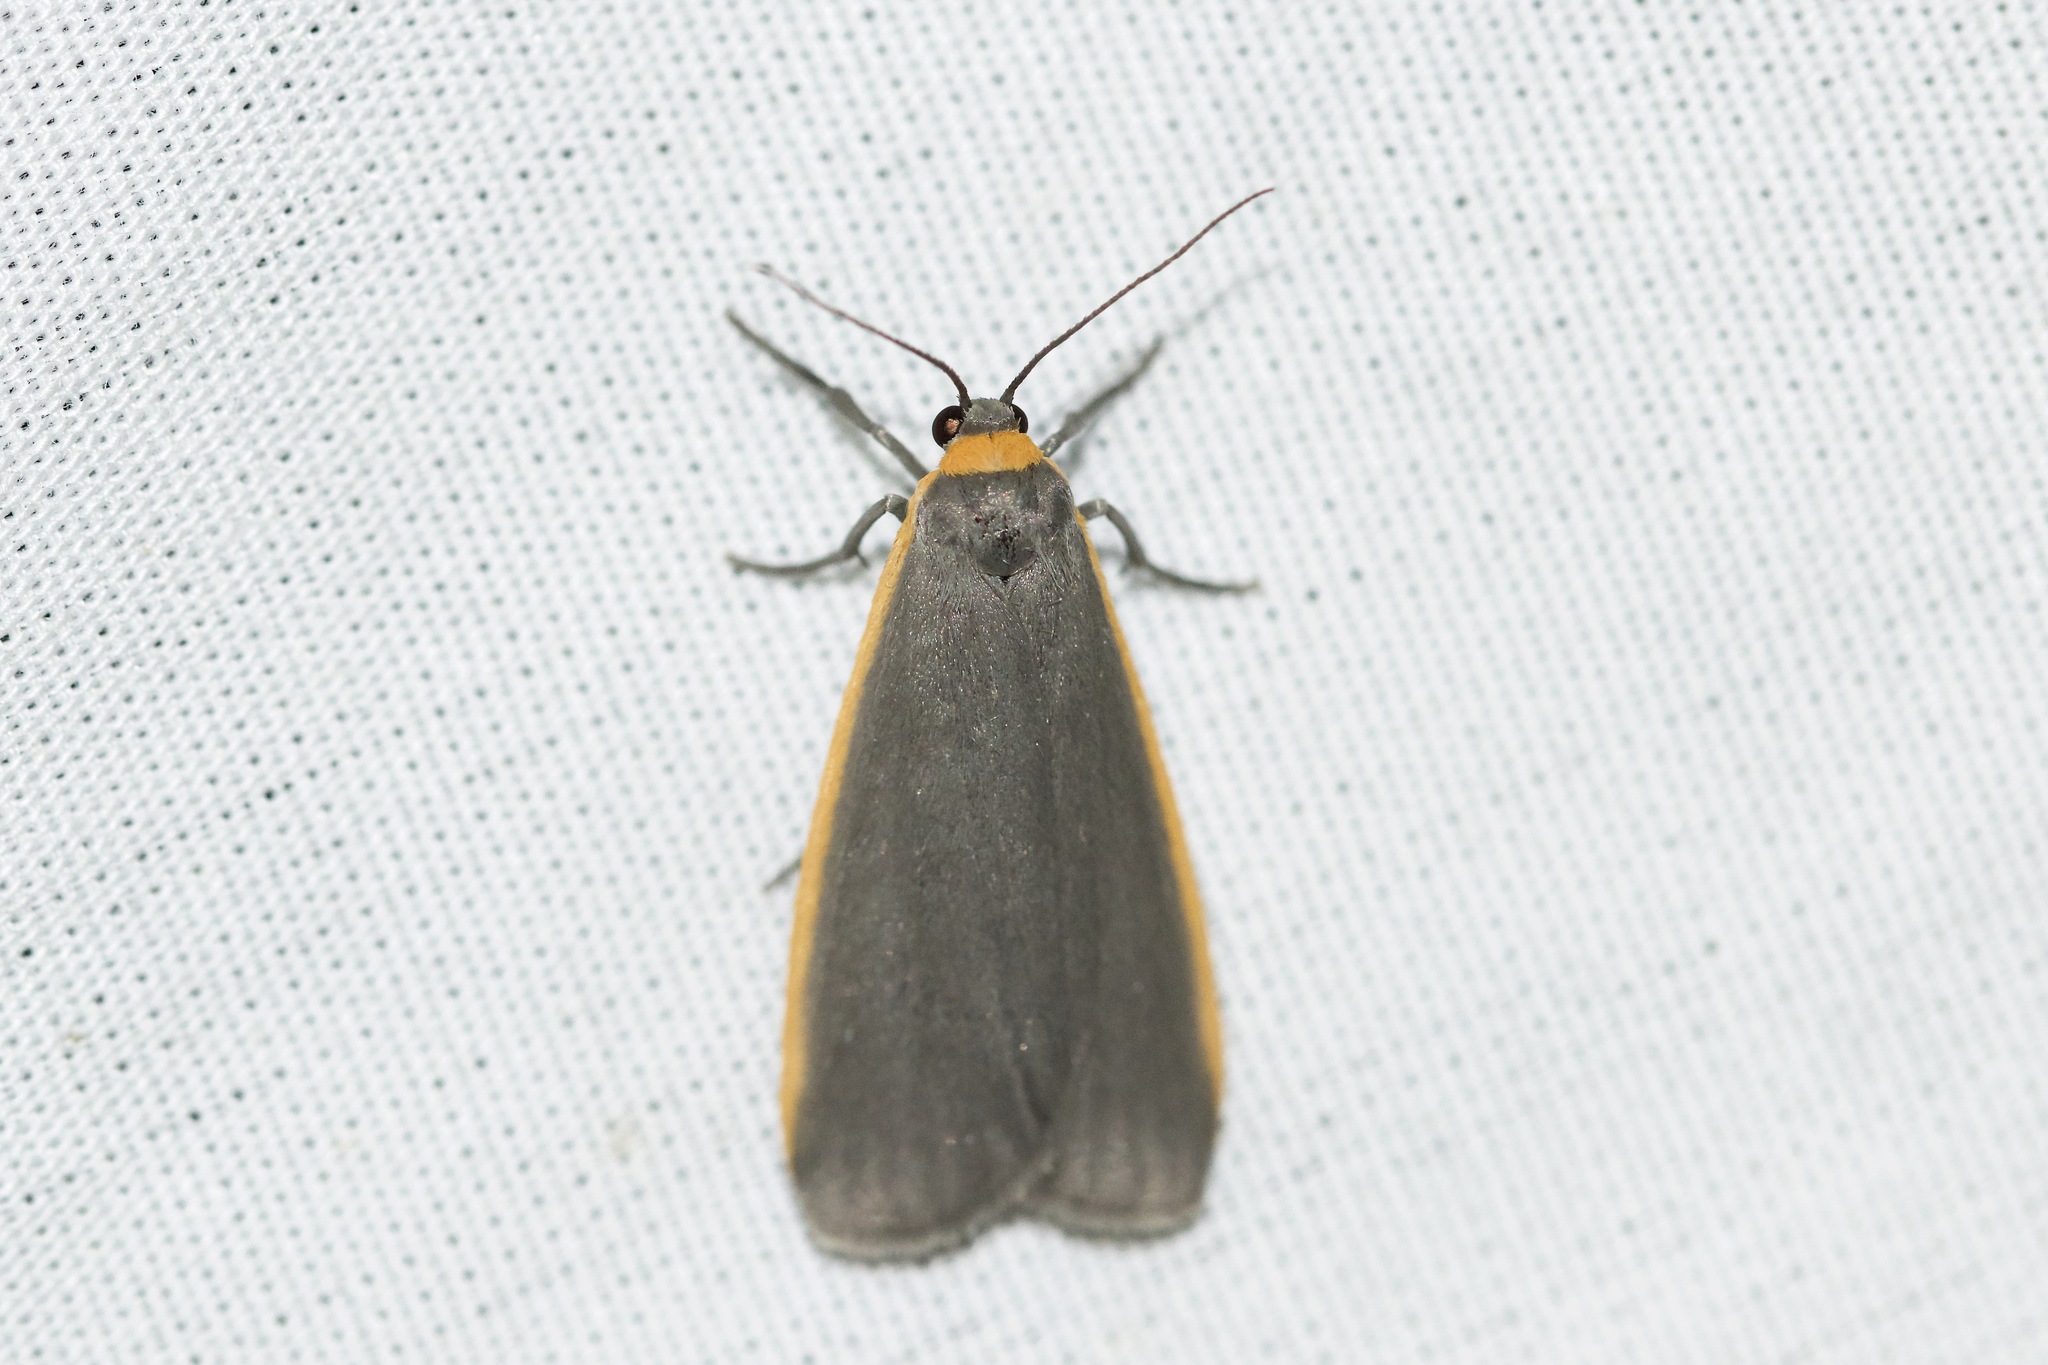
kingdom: Animalia
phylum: Arthropoda
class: Insecta
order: Lepidoptera
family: Erebidae
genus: Manulea
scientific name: Manulea bicolor
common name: Bicolored moth
